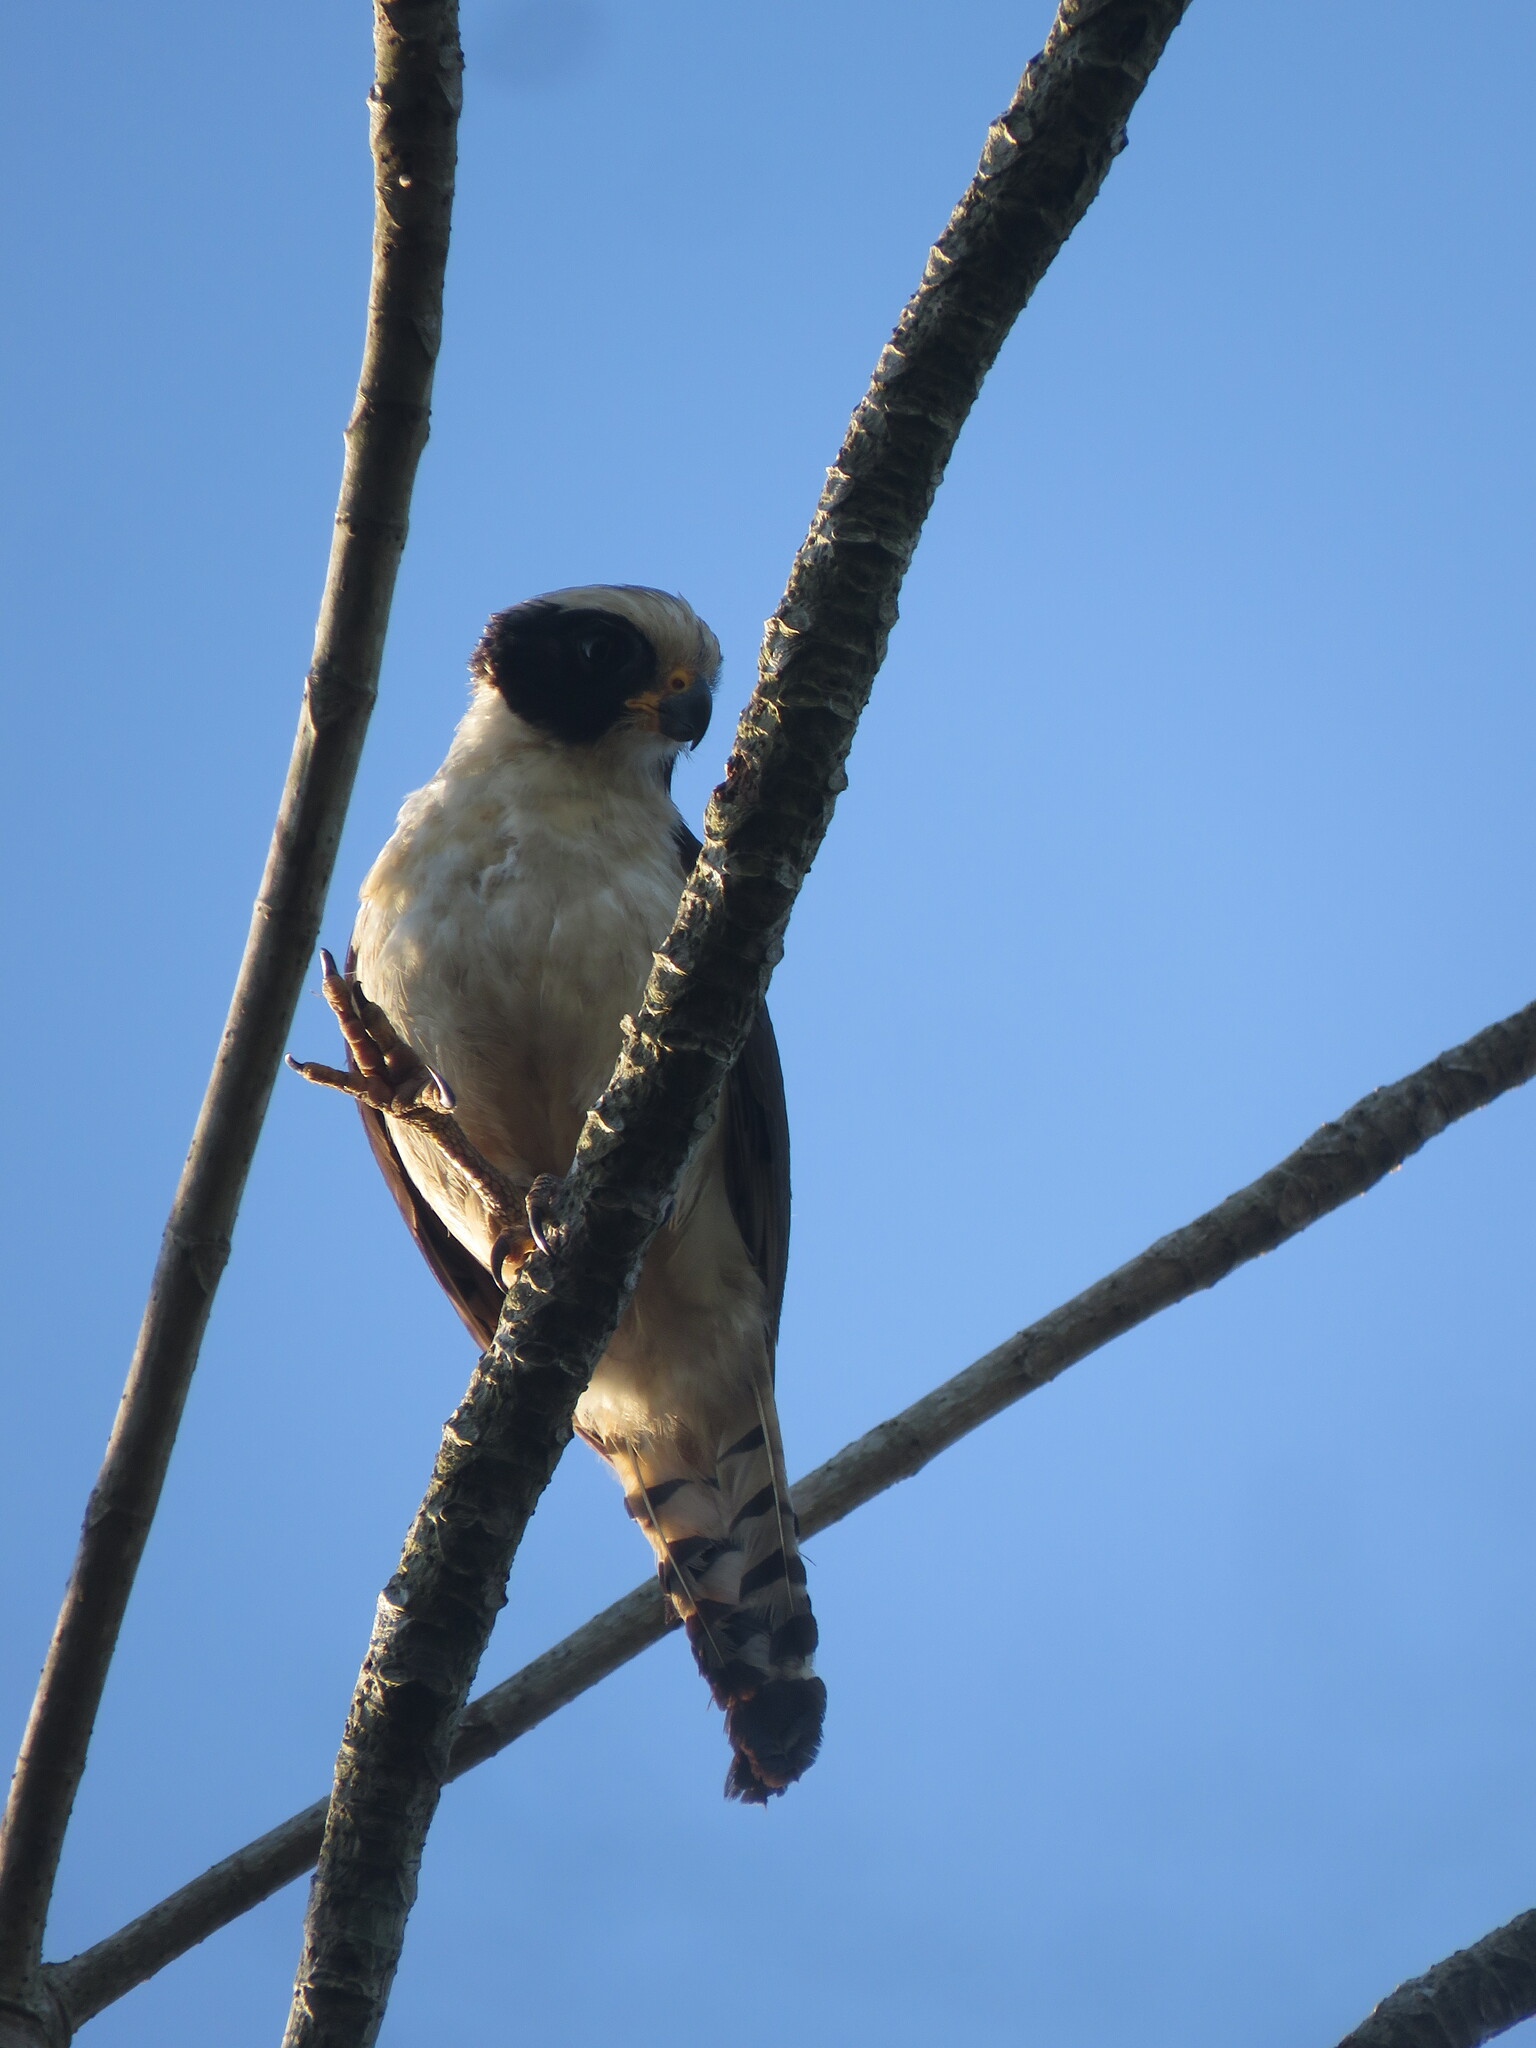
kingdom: Animalia
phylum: Chordata
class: Aves
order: Falconiformes
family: Falconidae
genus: Herpetotheres
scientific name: Herpetotheres cachinnans
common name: Laughing falcon
